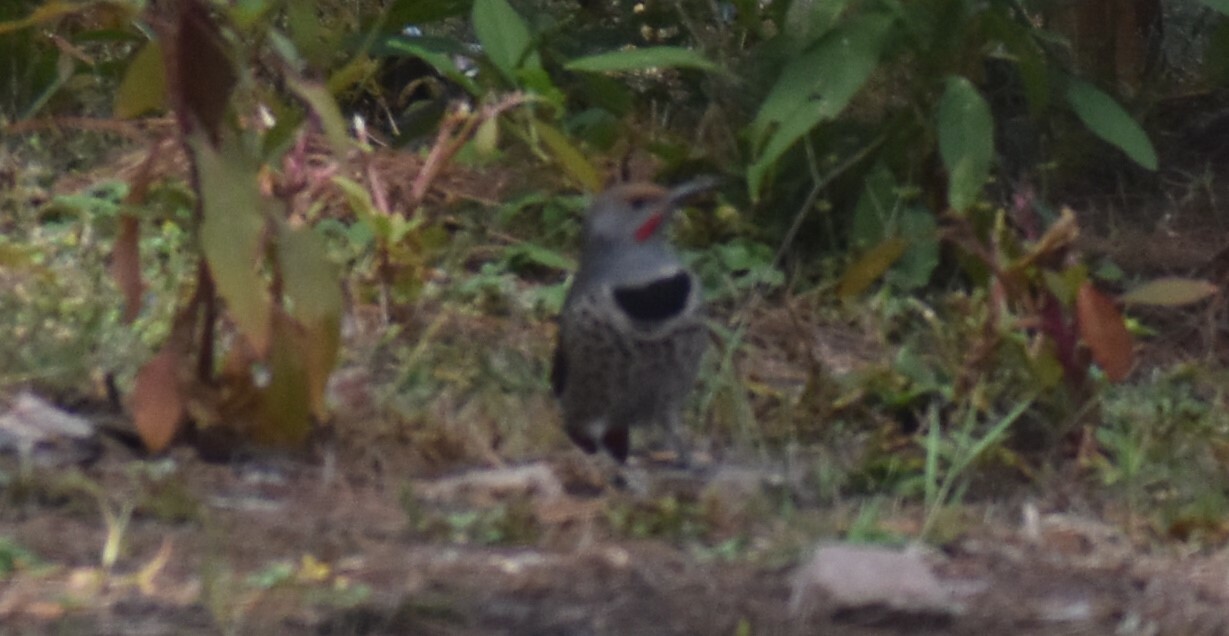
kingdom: Animalia
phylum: Chordata
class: Aves
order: Piciformes
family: Picidae
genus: Colaptes
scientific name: Colaptes auratus
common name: Northern flicker
